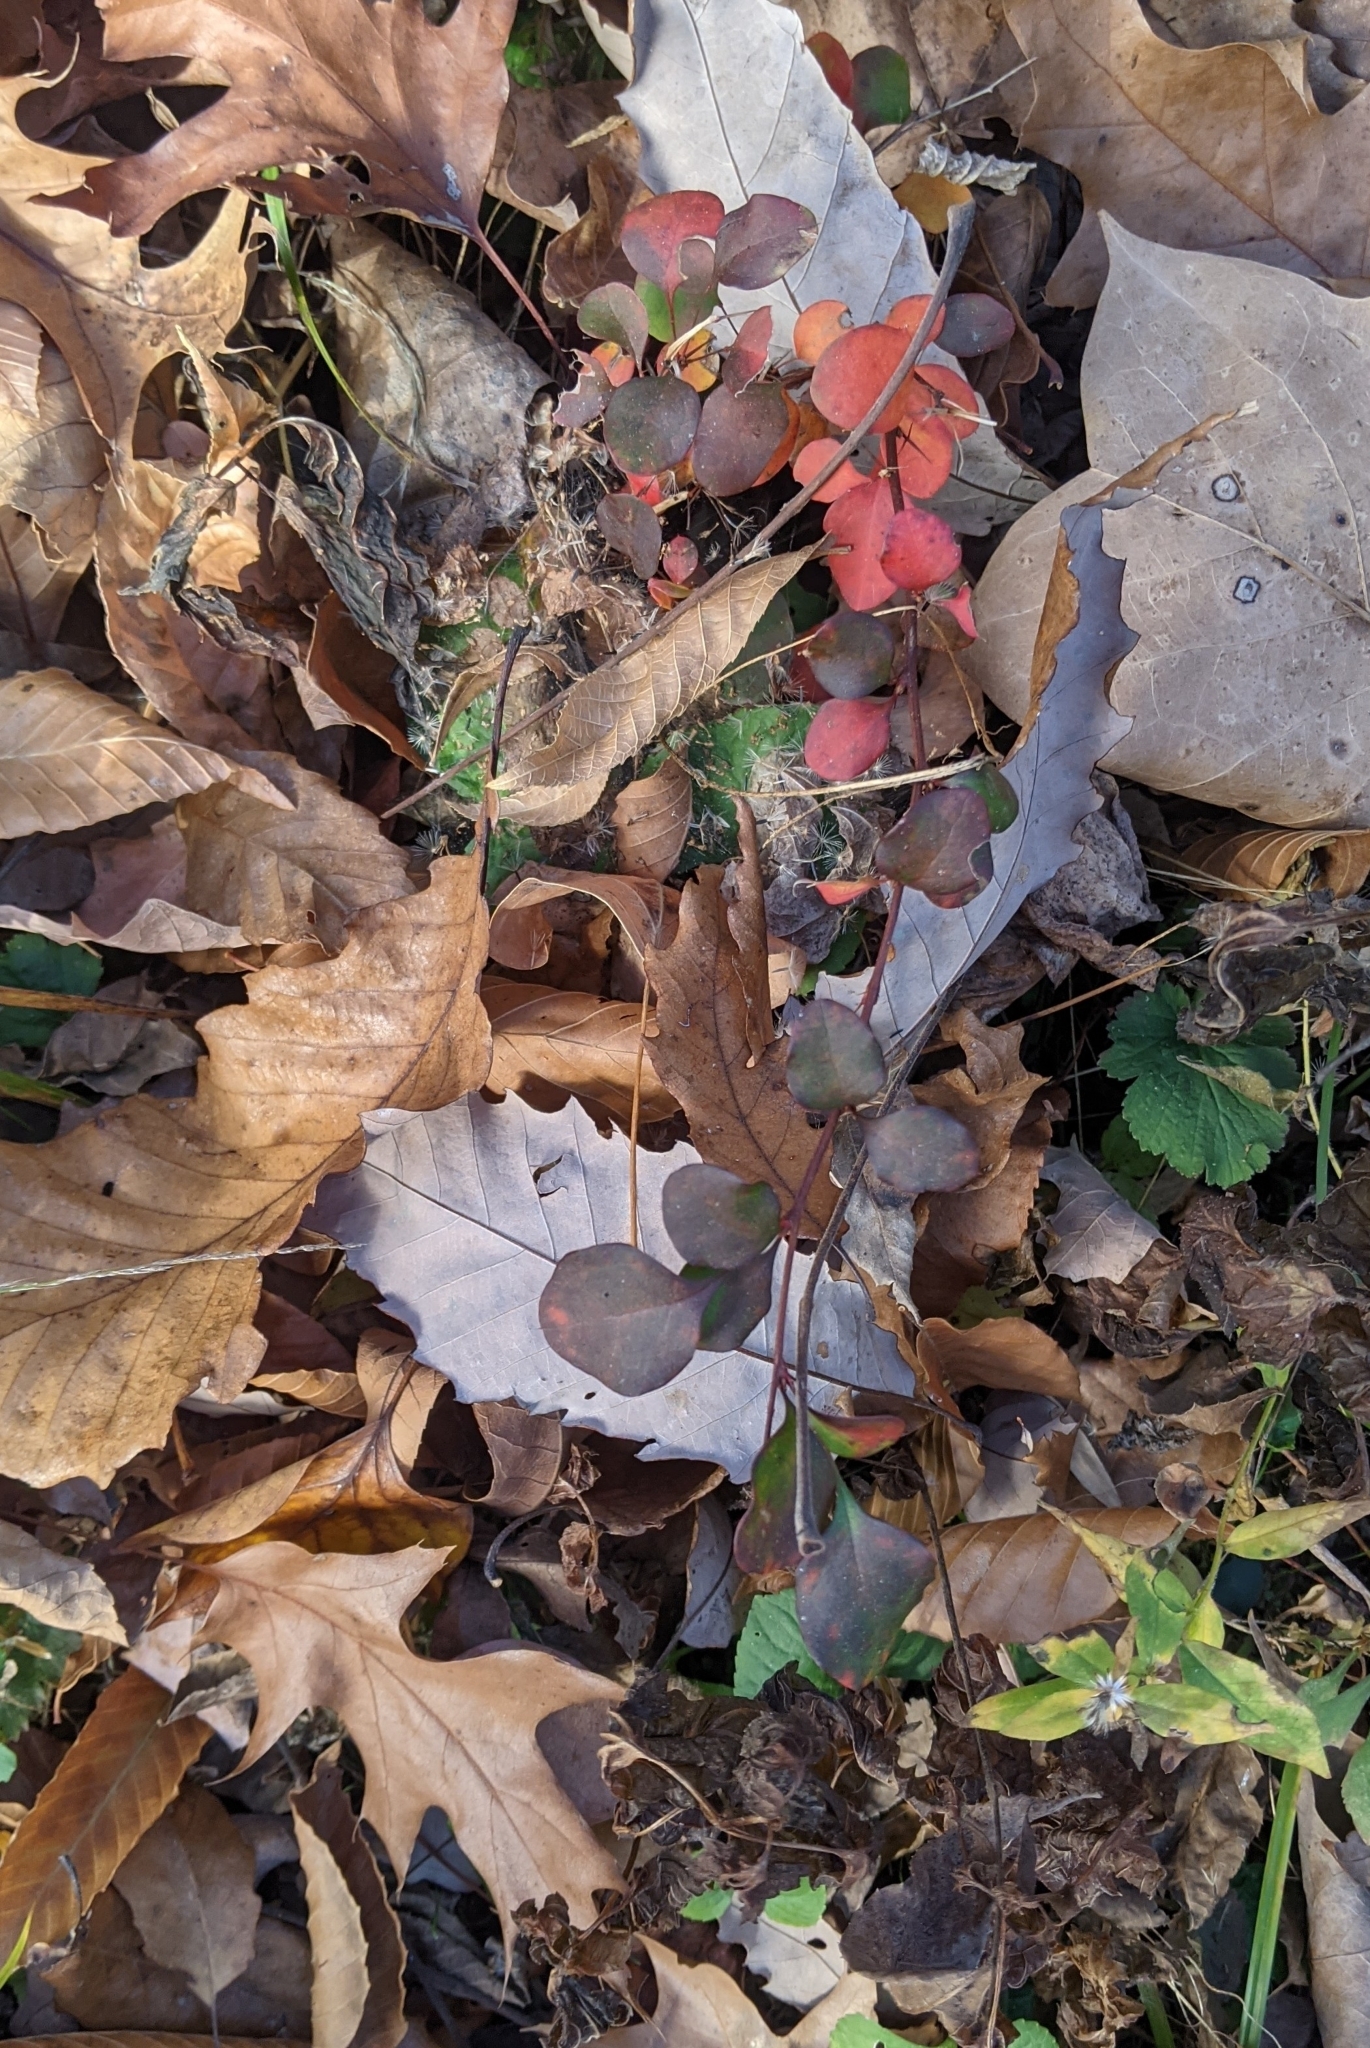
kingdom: Plantae
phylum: Tracheophyta
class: Magnoliopsida
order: Ranunculales
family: Berberidaceae
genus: Berberis
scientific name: Berberis thunbergii
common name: Japanese barberry
